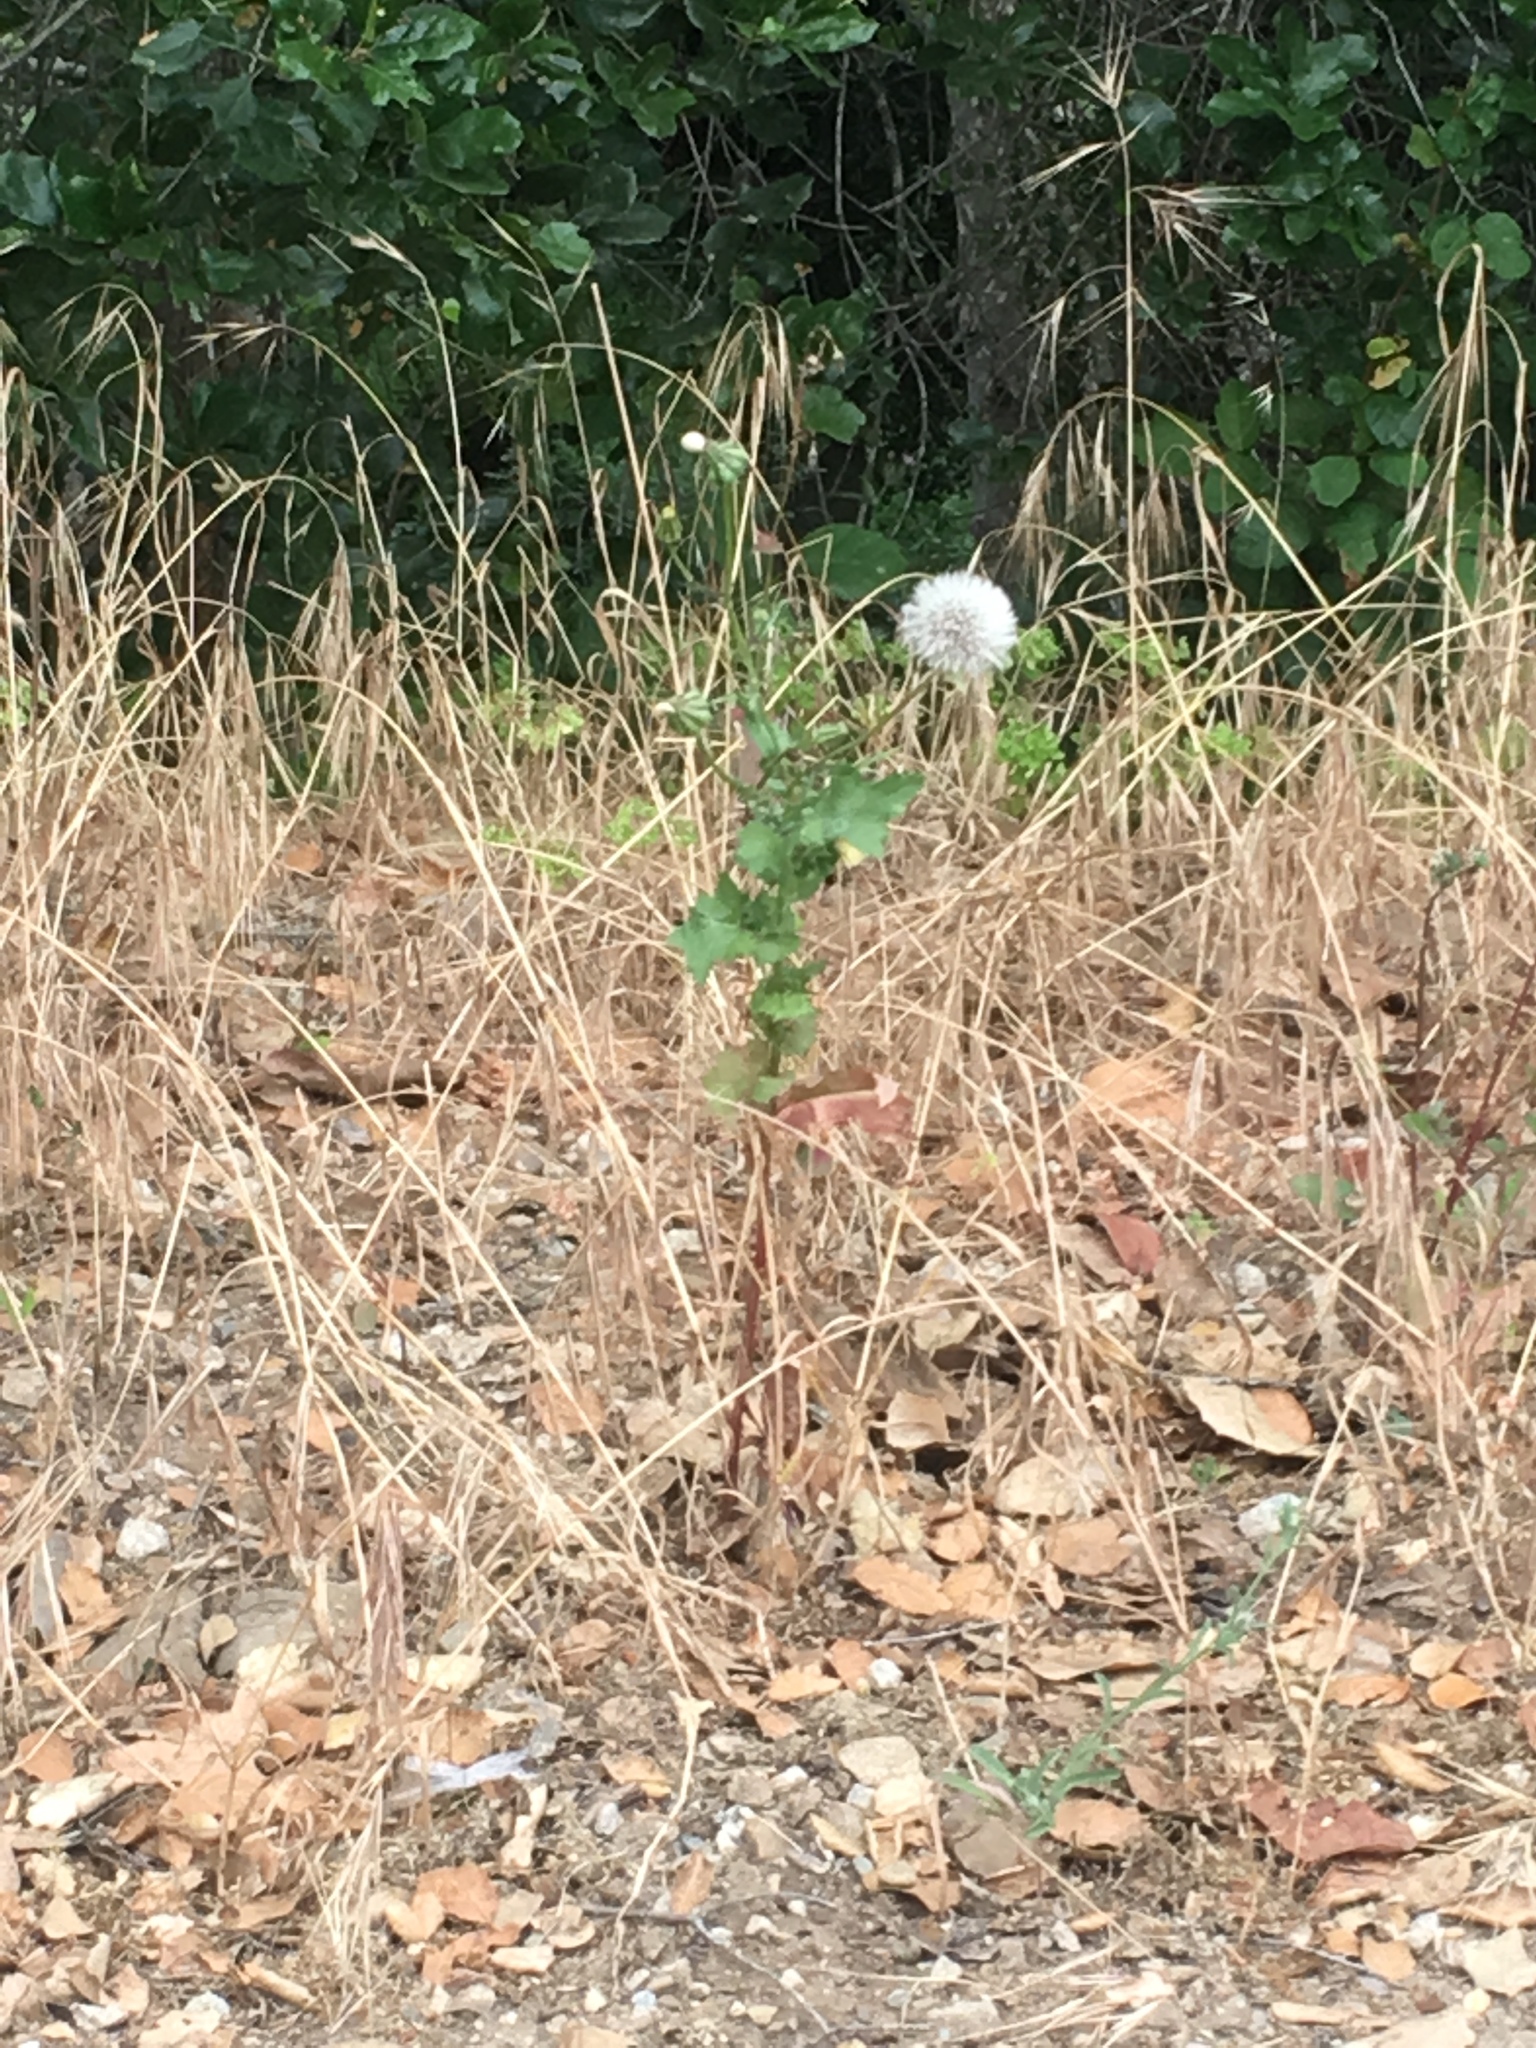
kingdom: Plantae
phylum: Tracheophyta
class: Magnoliopsida
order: Asterales
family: Asteraceae
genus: Urospermum
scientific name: Urospermum picroides
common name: False hawkbit
